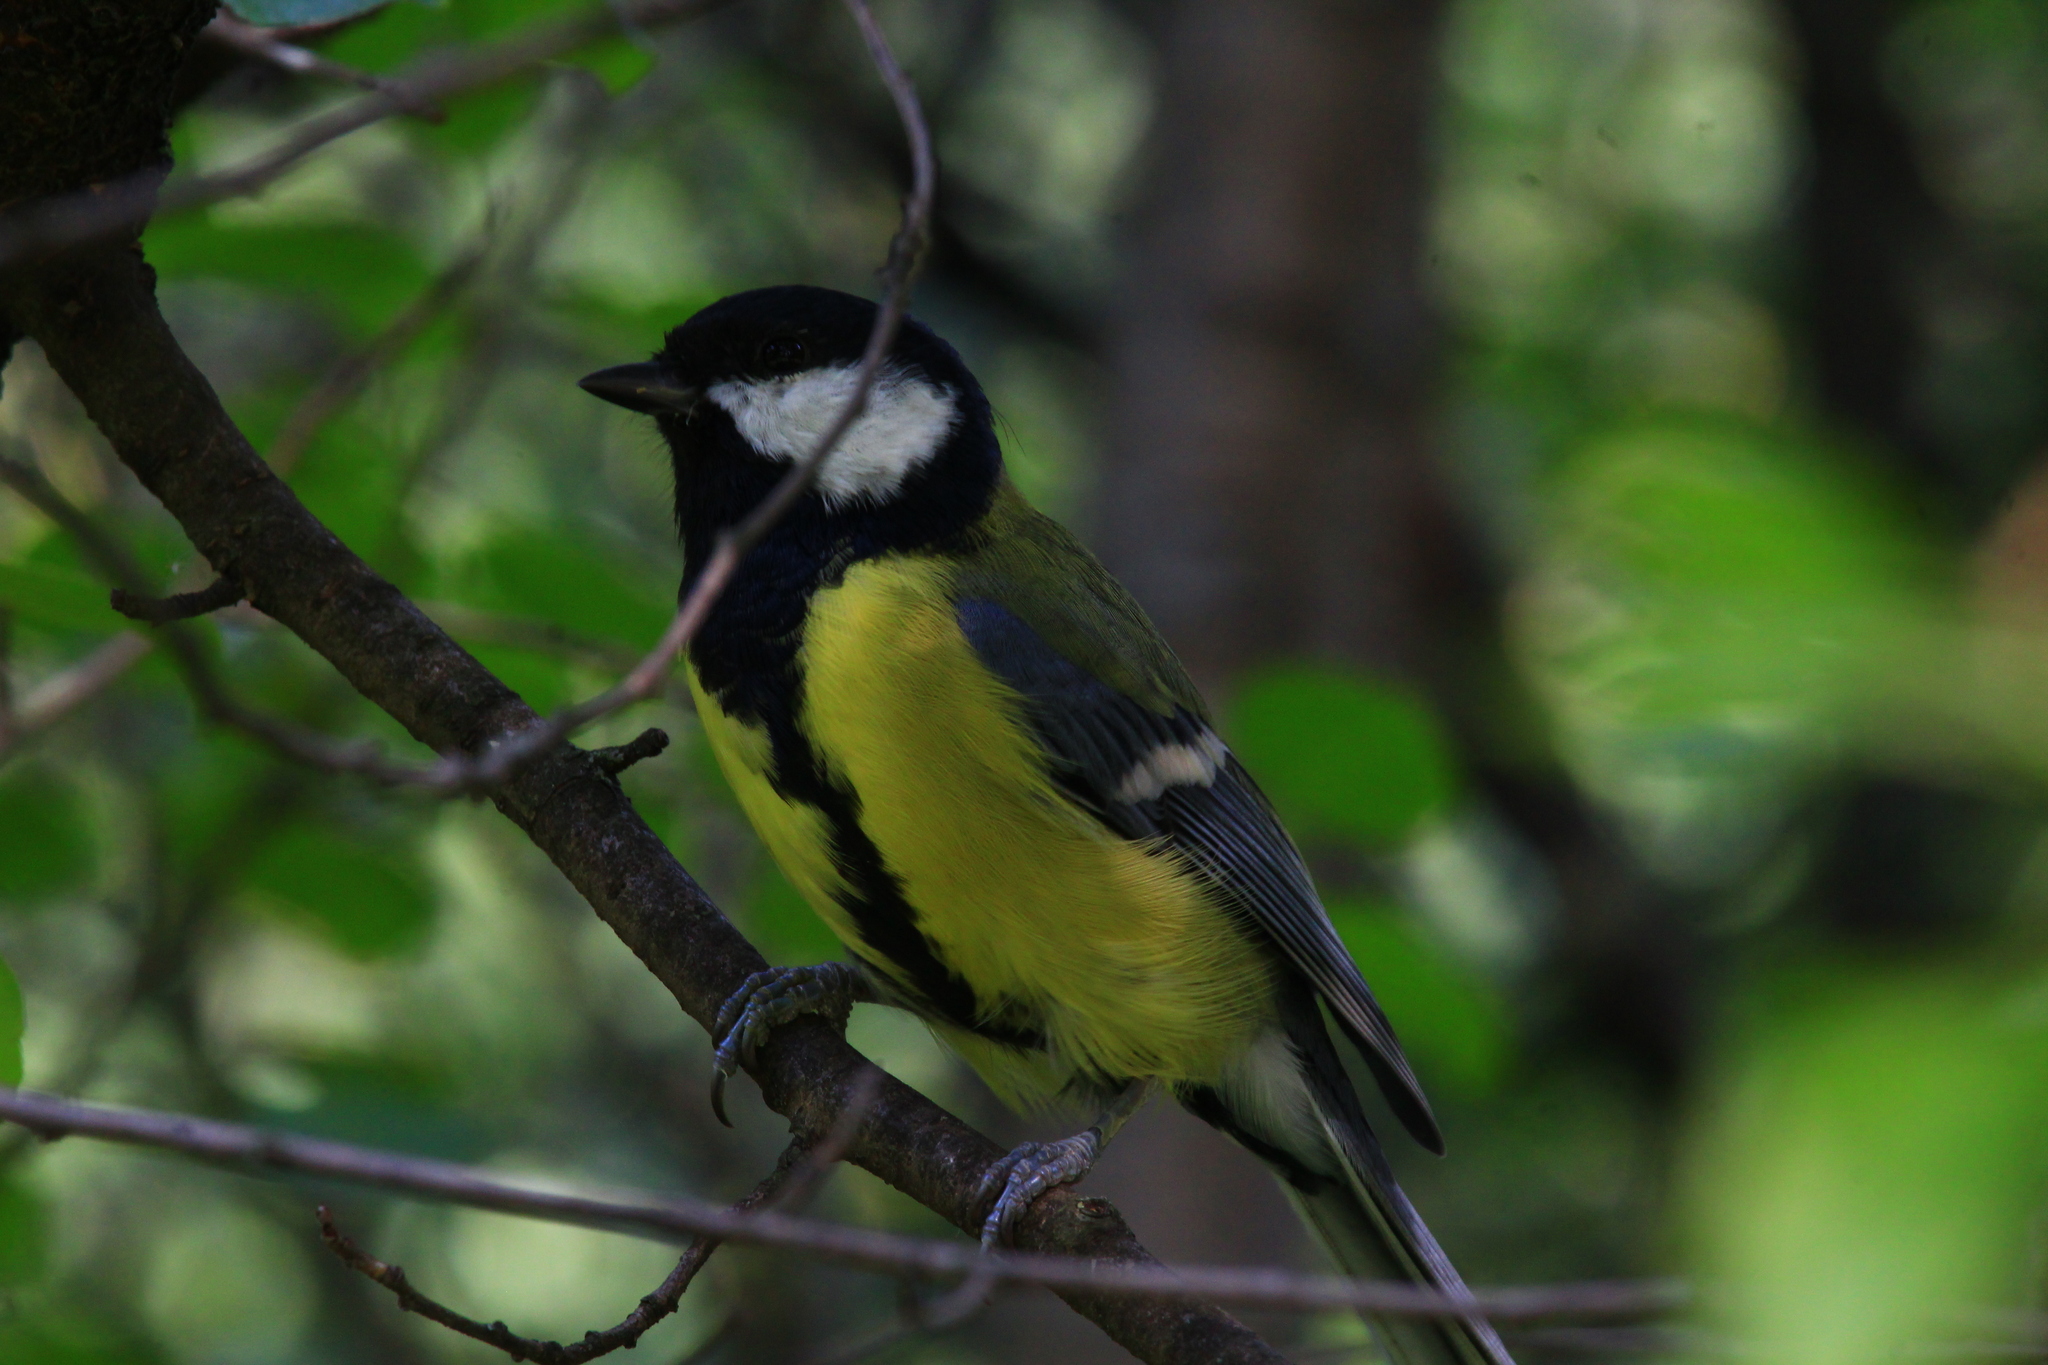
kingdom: Animalia
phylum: Chordata
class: Aves
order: Passeriformes
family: Paridae
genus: Parus
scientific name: Parus major
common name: Great tit
